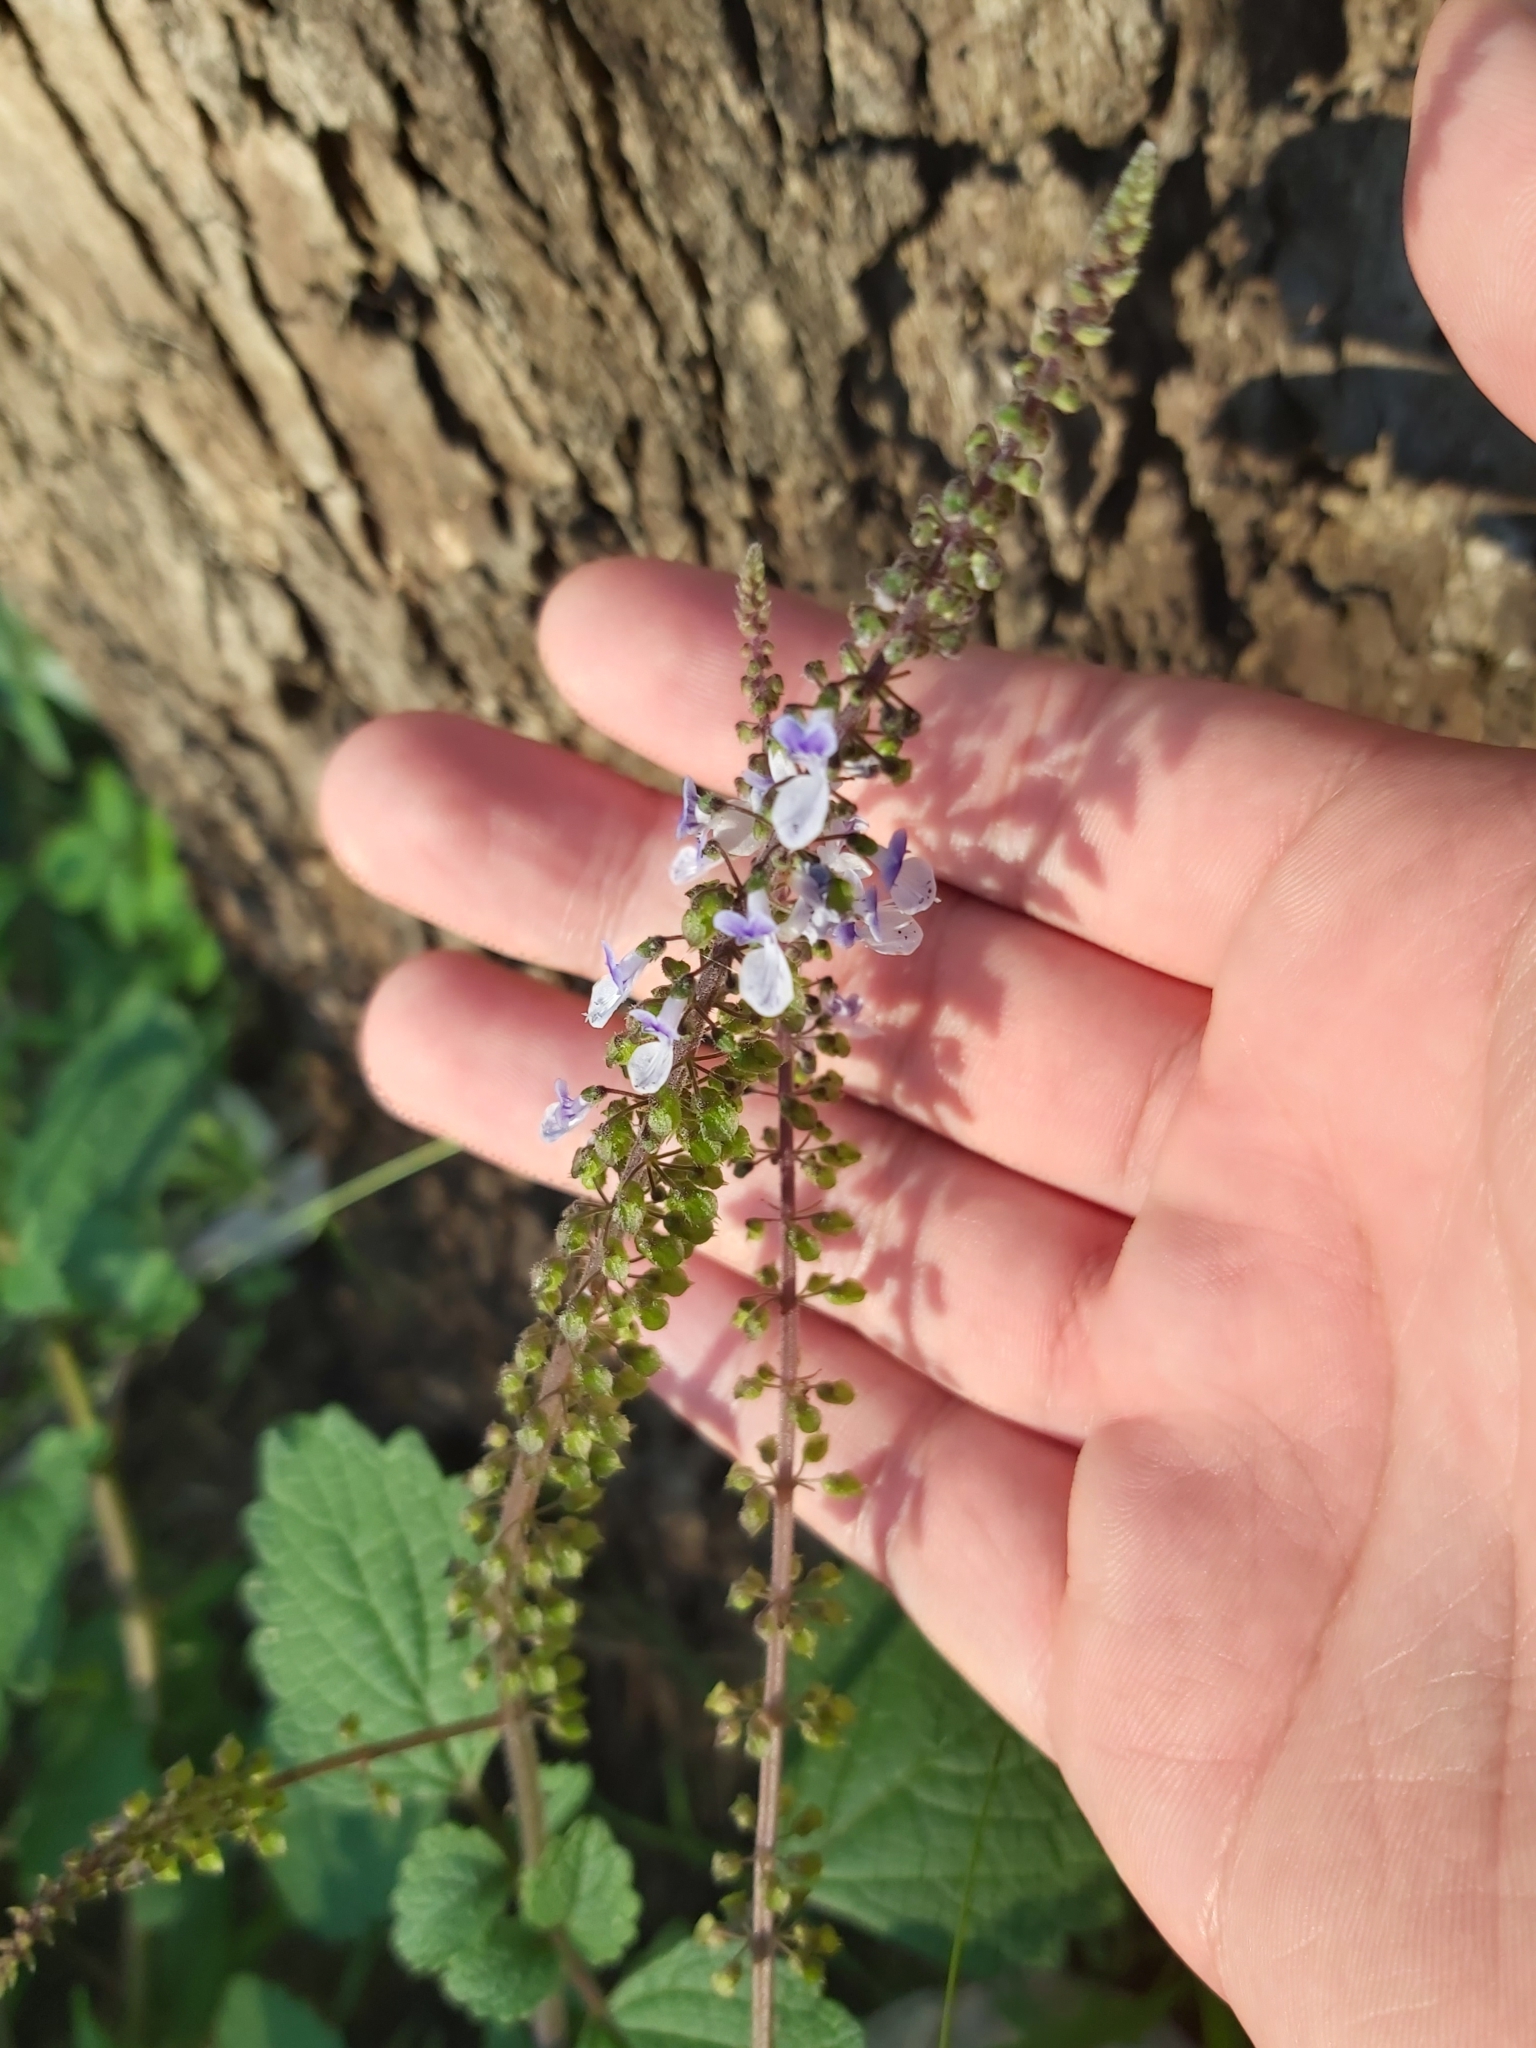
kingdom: Plantae
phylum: Tracheophyta
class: Magnoliopsida
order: Lamiales
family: Lamiaceae
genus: Coleus
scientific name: Coleus australis
